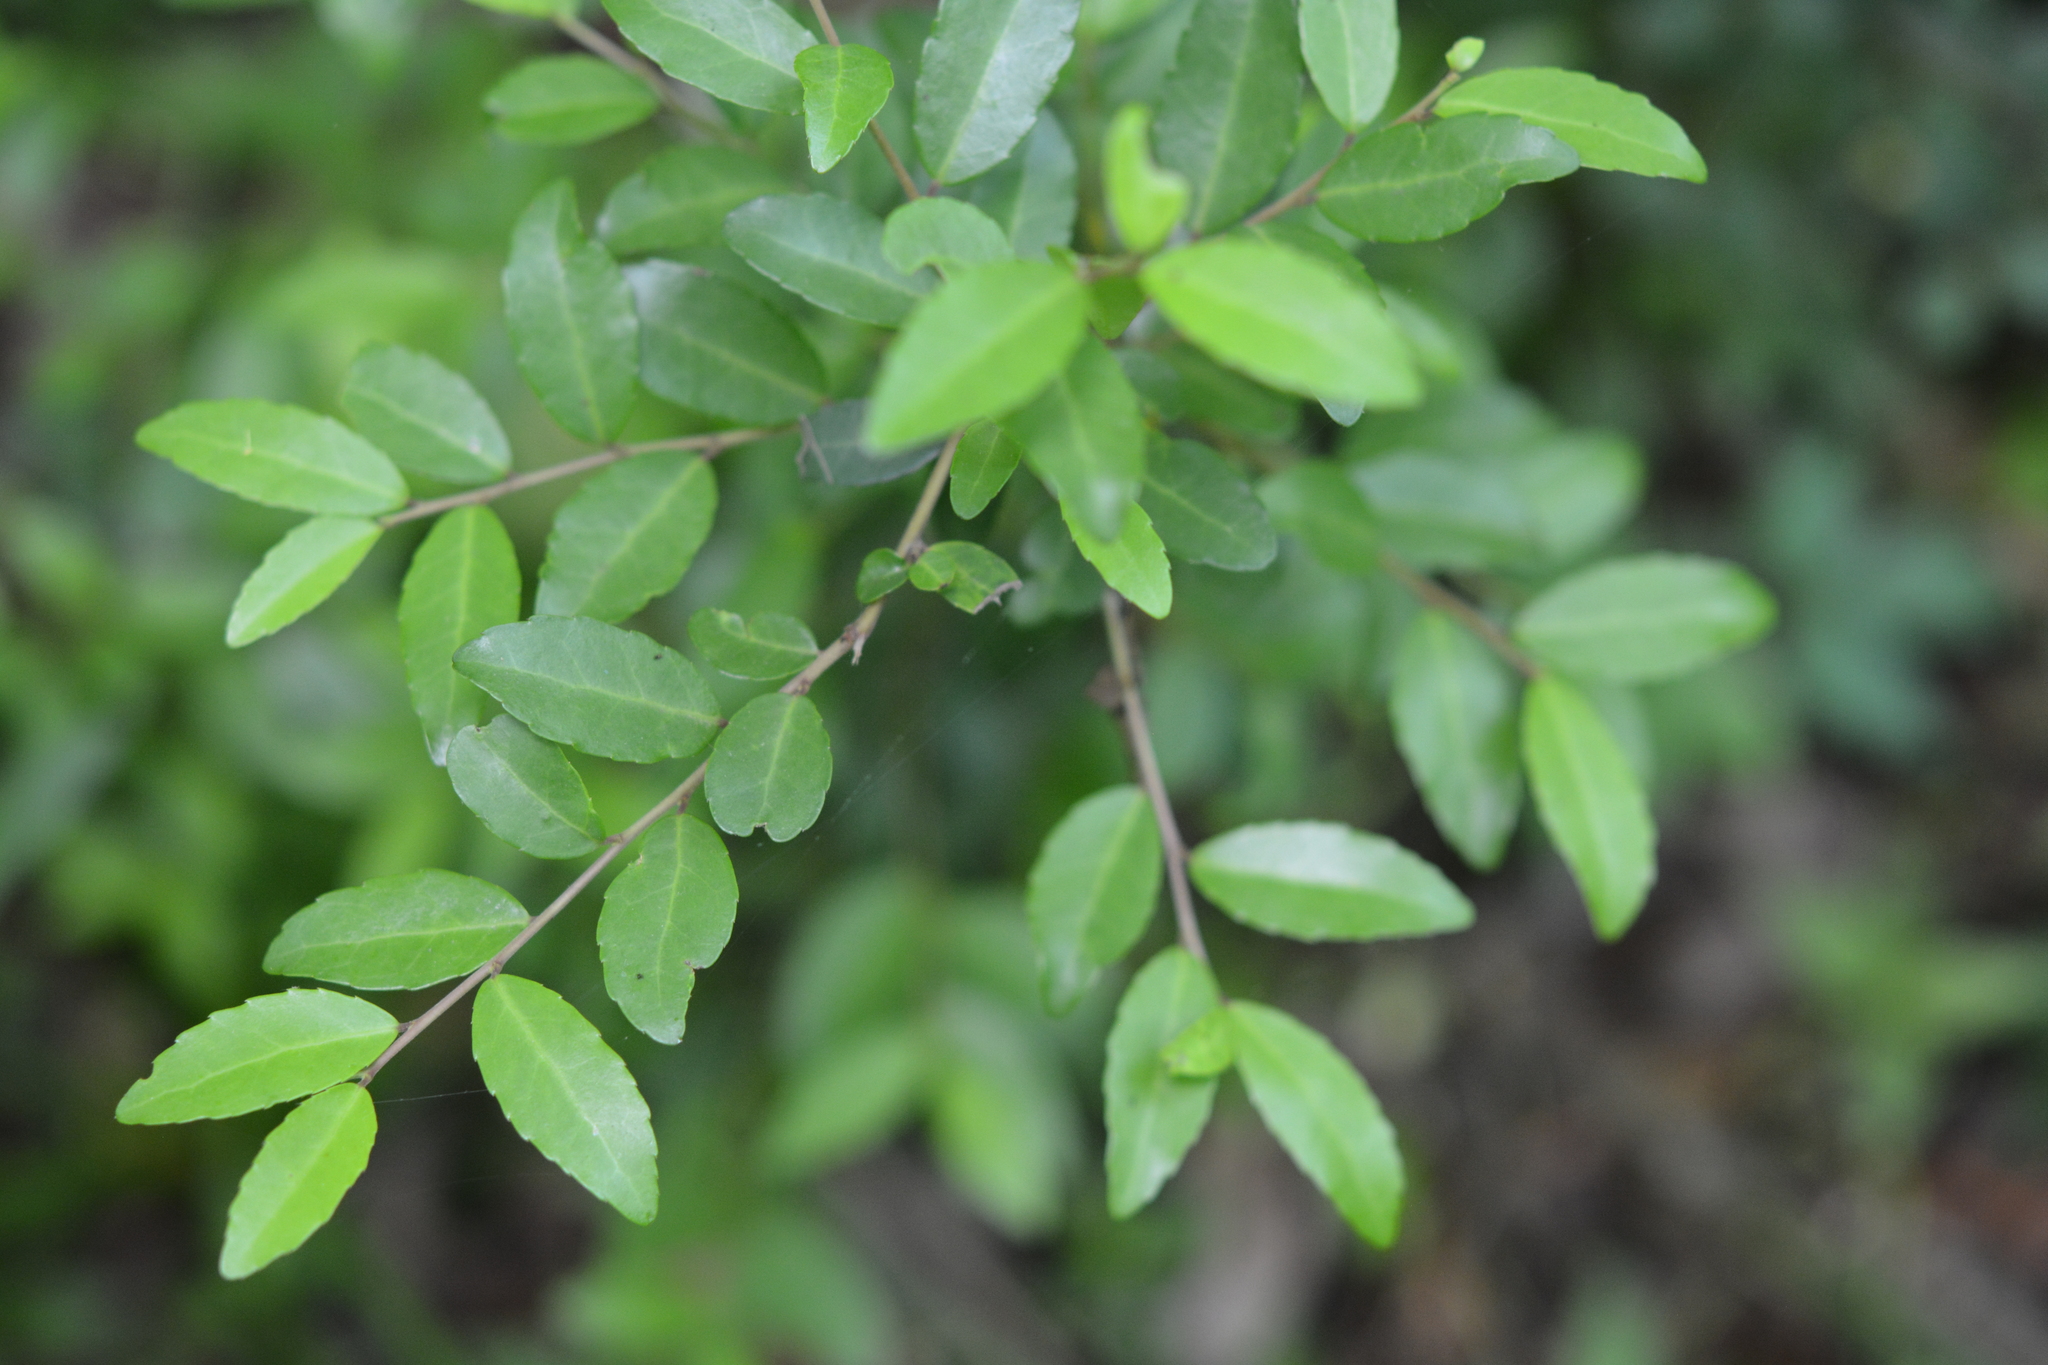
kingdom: Plantae
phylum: Tracheophyta
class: Magnoliopsida
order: Aquifoliales
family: Aquifoliaceae
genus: Ilex
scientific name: Ilex vomitoria
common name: Yaupon holly
